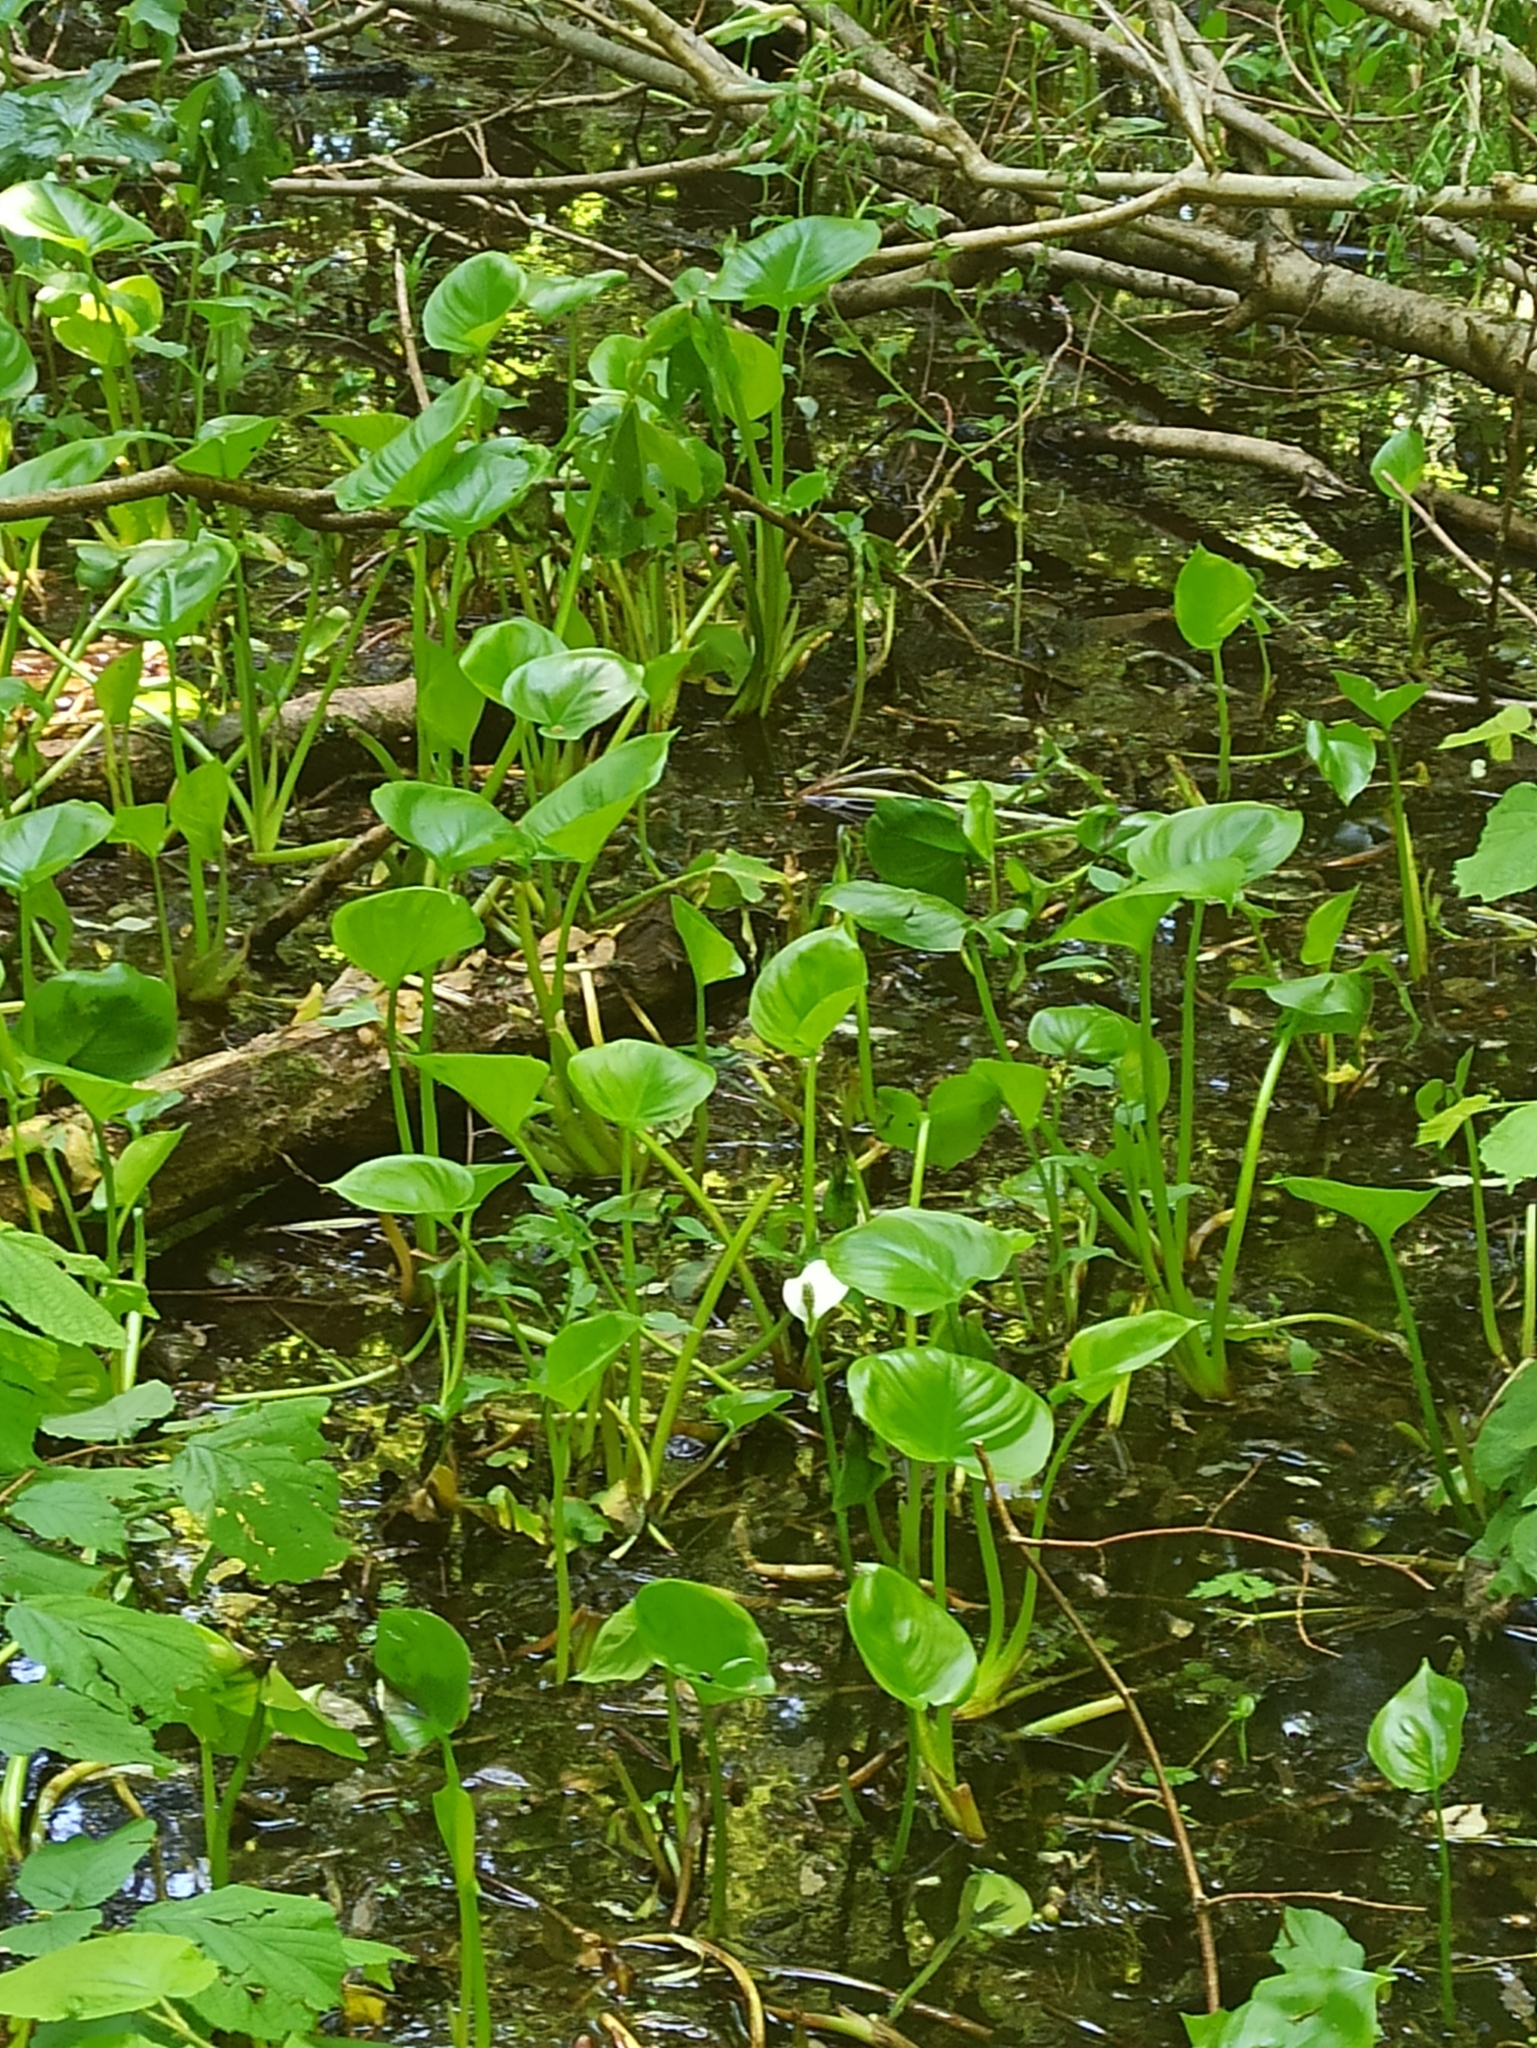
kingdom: Plantae
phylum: Tracheophyta
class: Liliopsida
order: Alismatales
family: Araceae
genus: Calla
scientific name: Calla palustris
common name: Bog arum
